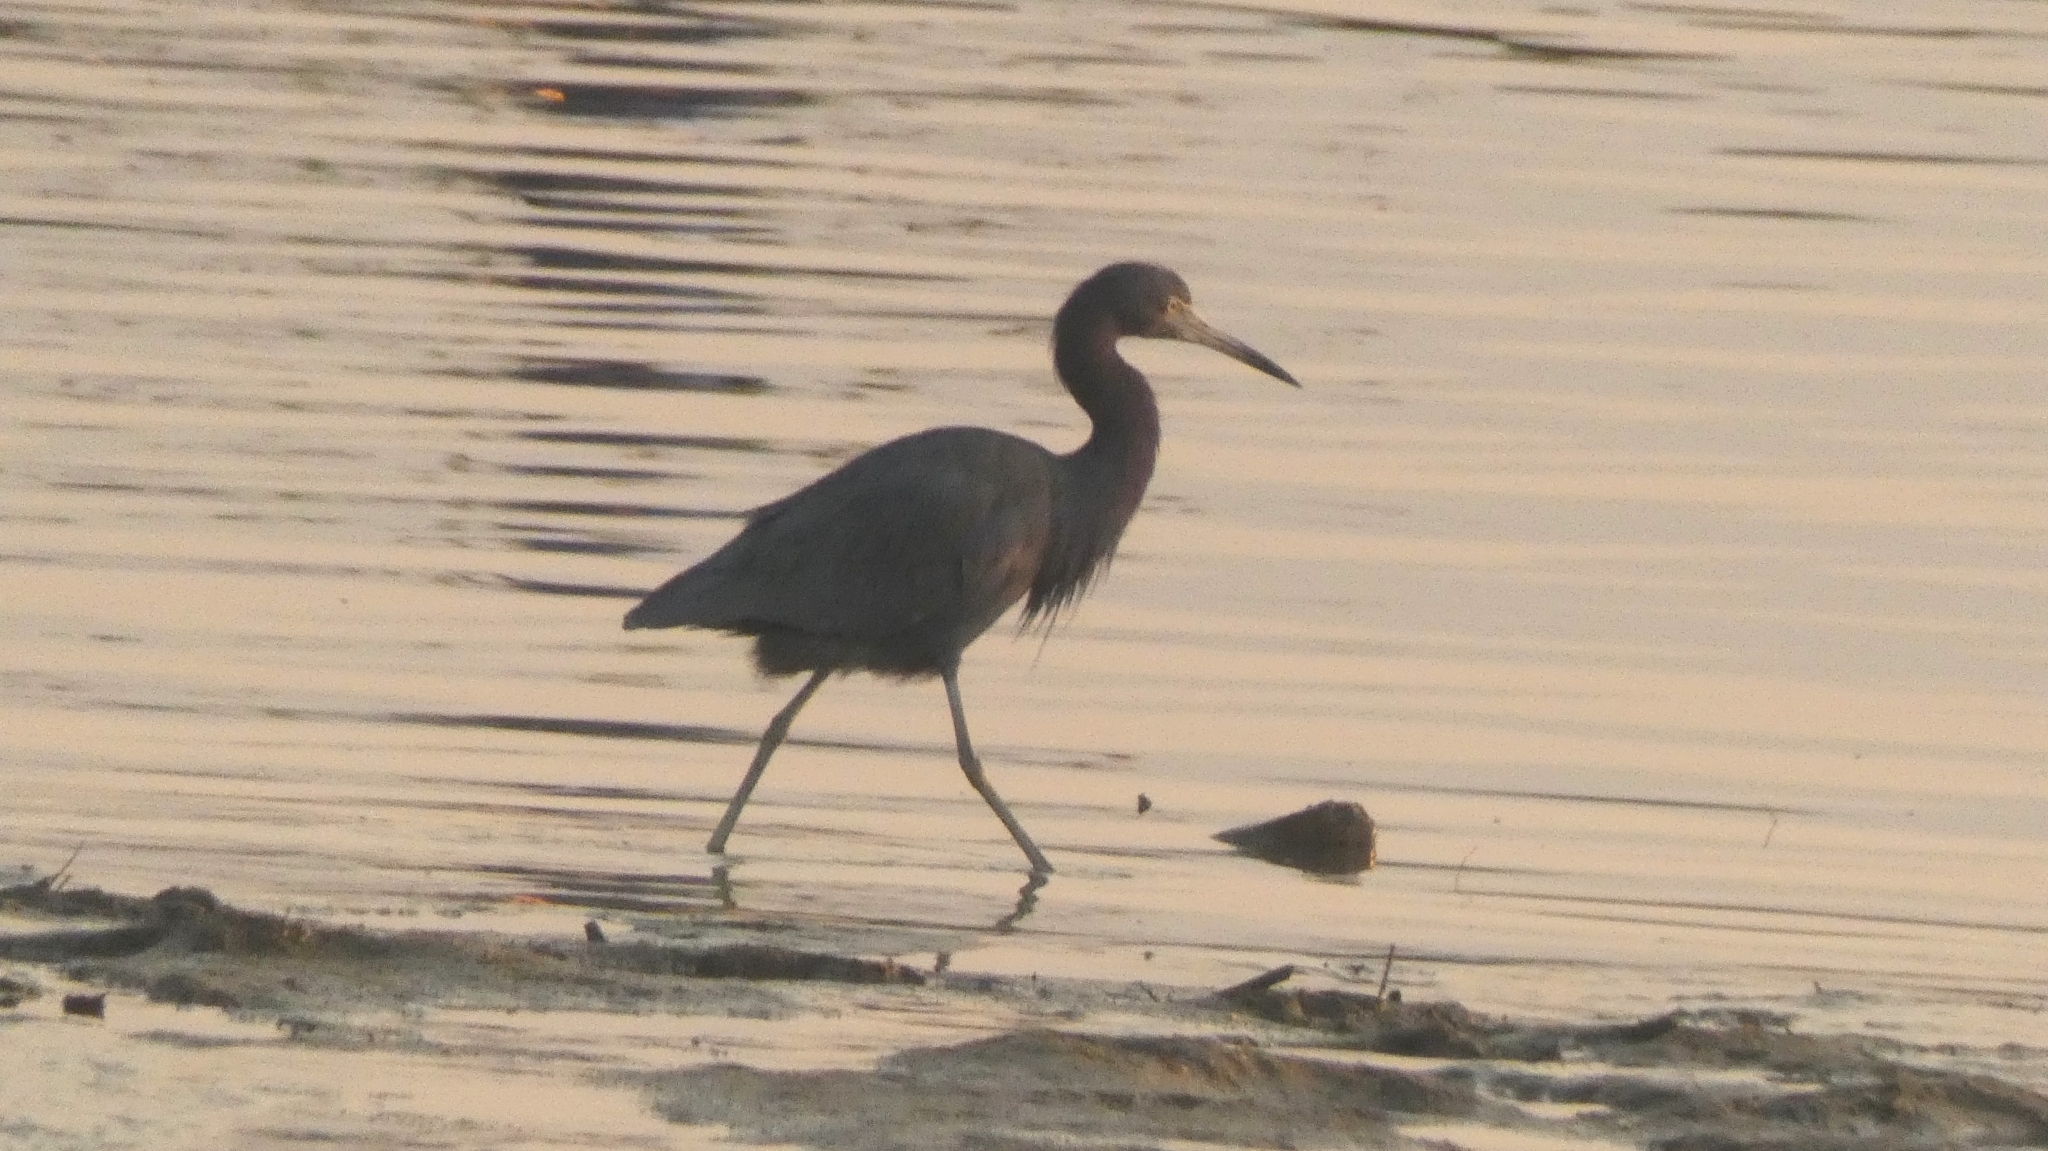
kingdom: Animalia
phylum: Chordata
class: Aves
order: Pelecaniformes
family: Ardeidae
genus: Egretta
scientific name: Egretta caerulea
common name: Little blue heron
